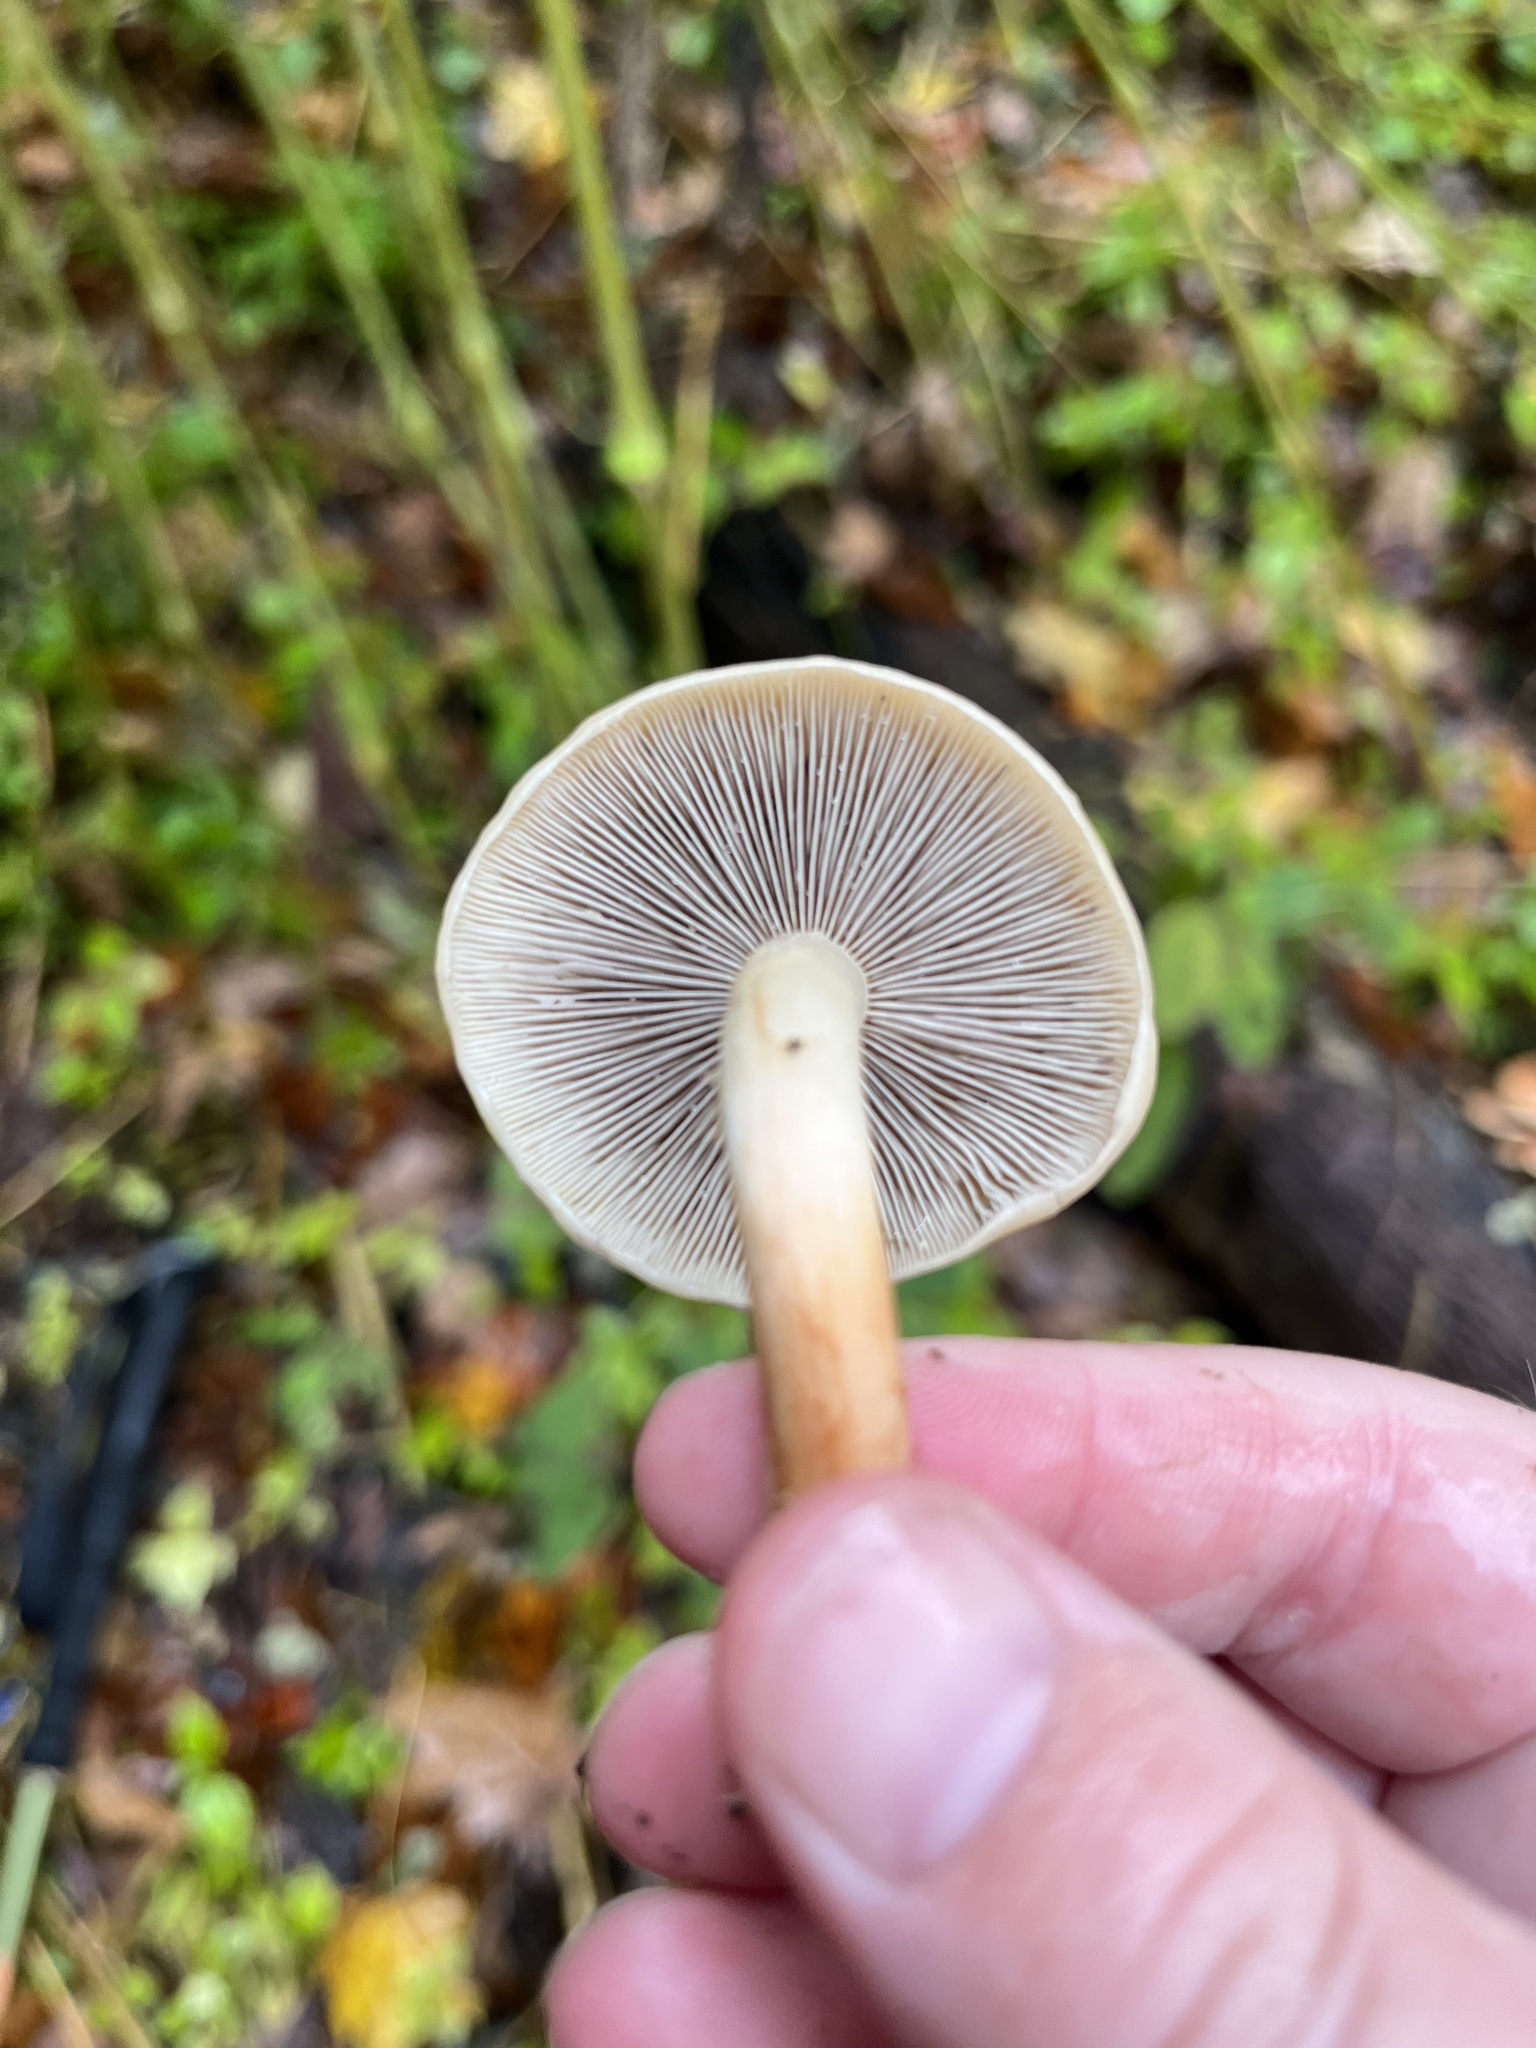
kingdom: Fungi
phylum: Basidiomycota
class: Agaricomycetes
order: Agaricales
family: Strophariaceae
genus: Hypholoma
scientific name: Hypholoma lateritium
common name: Brick caps
